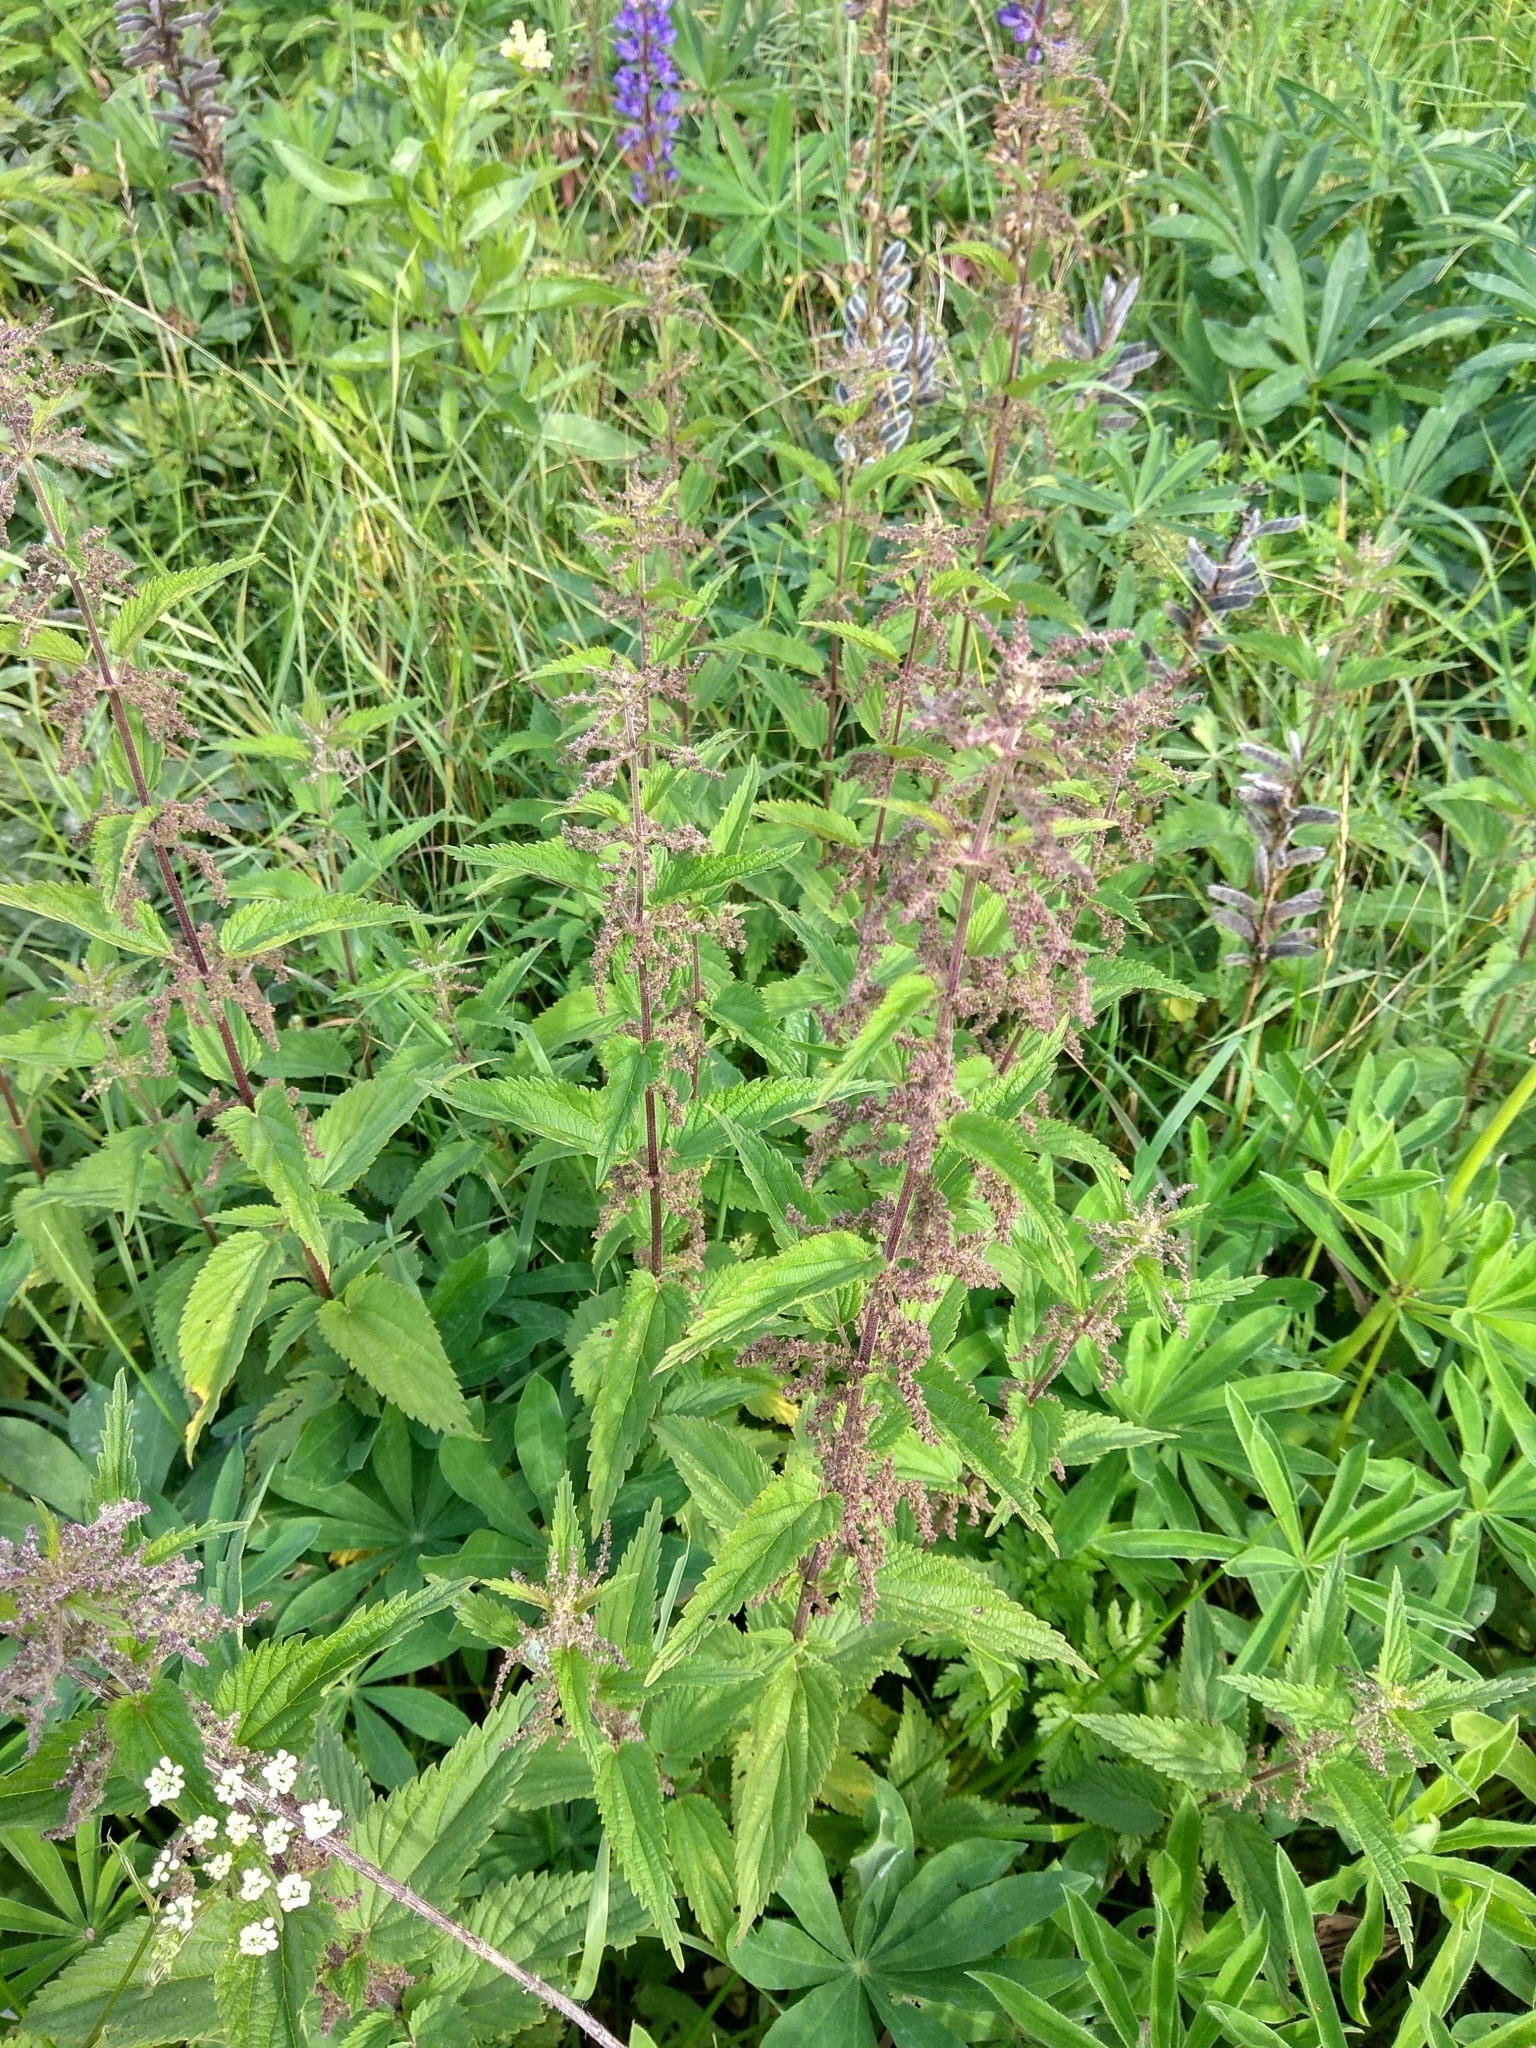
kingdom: Plantae
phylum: Tracheophyta
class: Magnoliopsida
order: Rosales
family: Urticaceae
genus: Urtica
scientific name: Urtica dioica
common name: Common nettle
